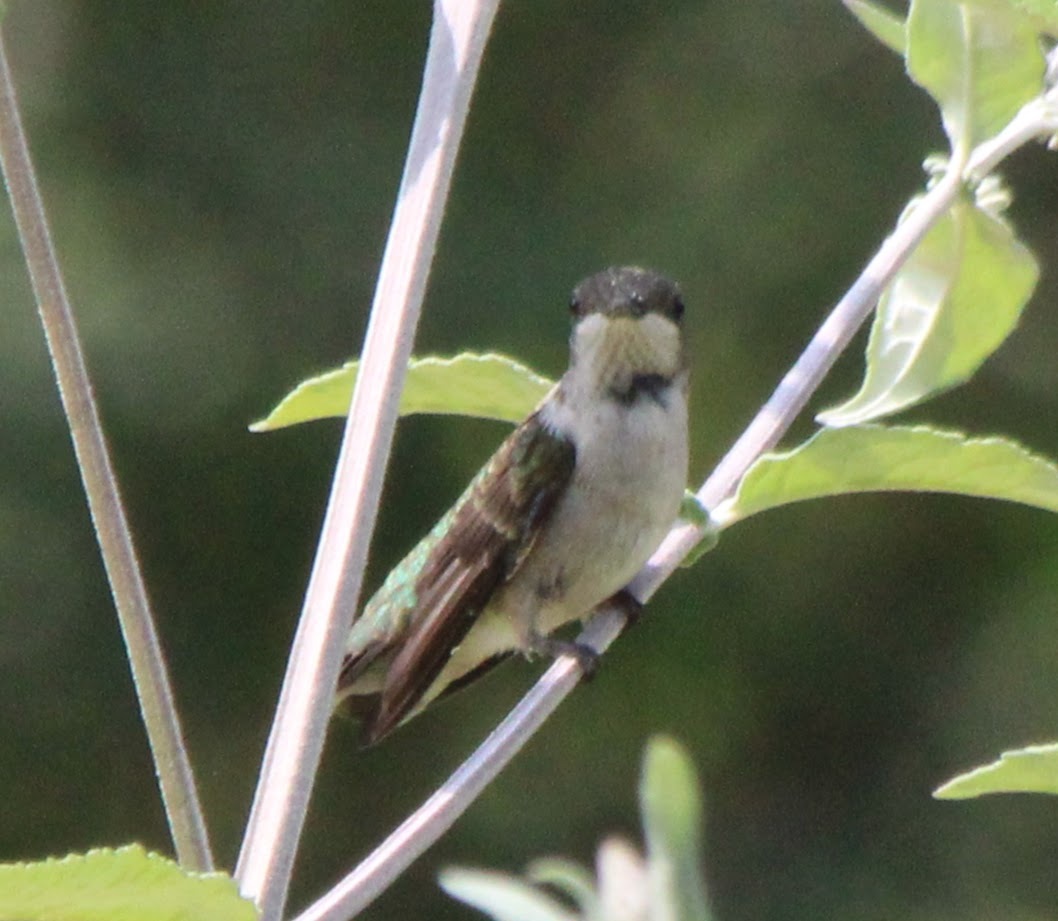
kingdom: Animalia
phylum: Chordata
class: Aves
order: Apodiformes
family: Trochilidae
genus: Archilochus
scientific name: Archilochus colubris
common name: Ruby-throated hummingbird
